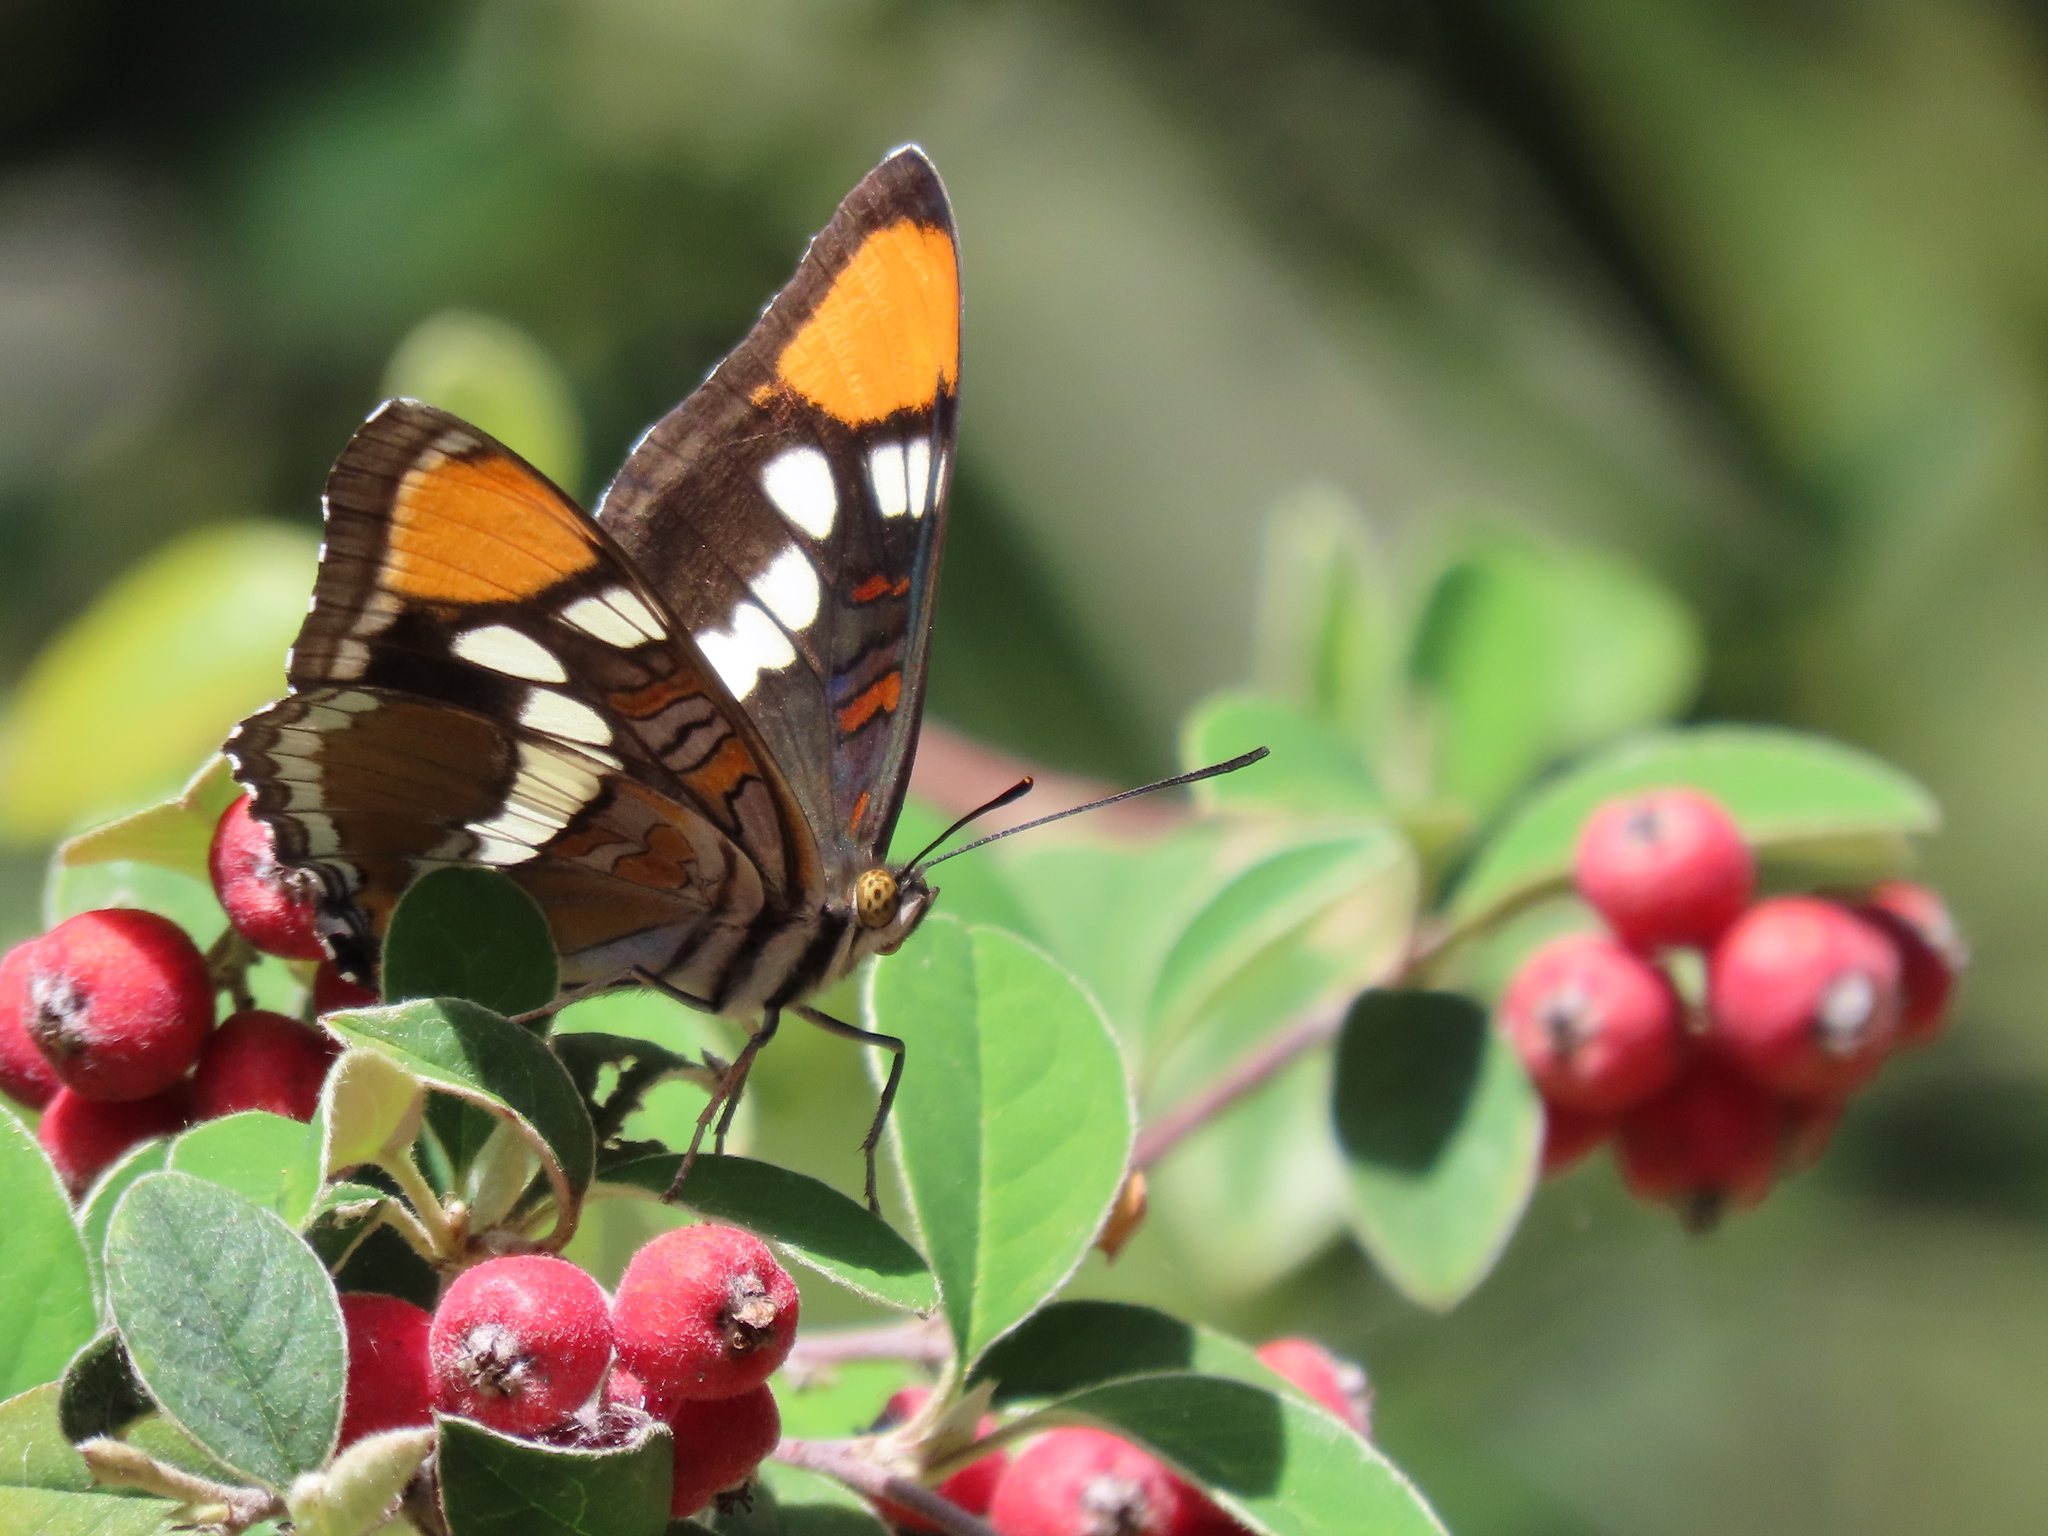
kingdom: Animalia
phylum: Arthropoda
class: Insecta
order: Lepidoptera
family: Nymphalidae
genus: Limenitis
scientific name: Limenitis bredowii
